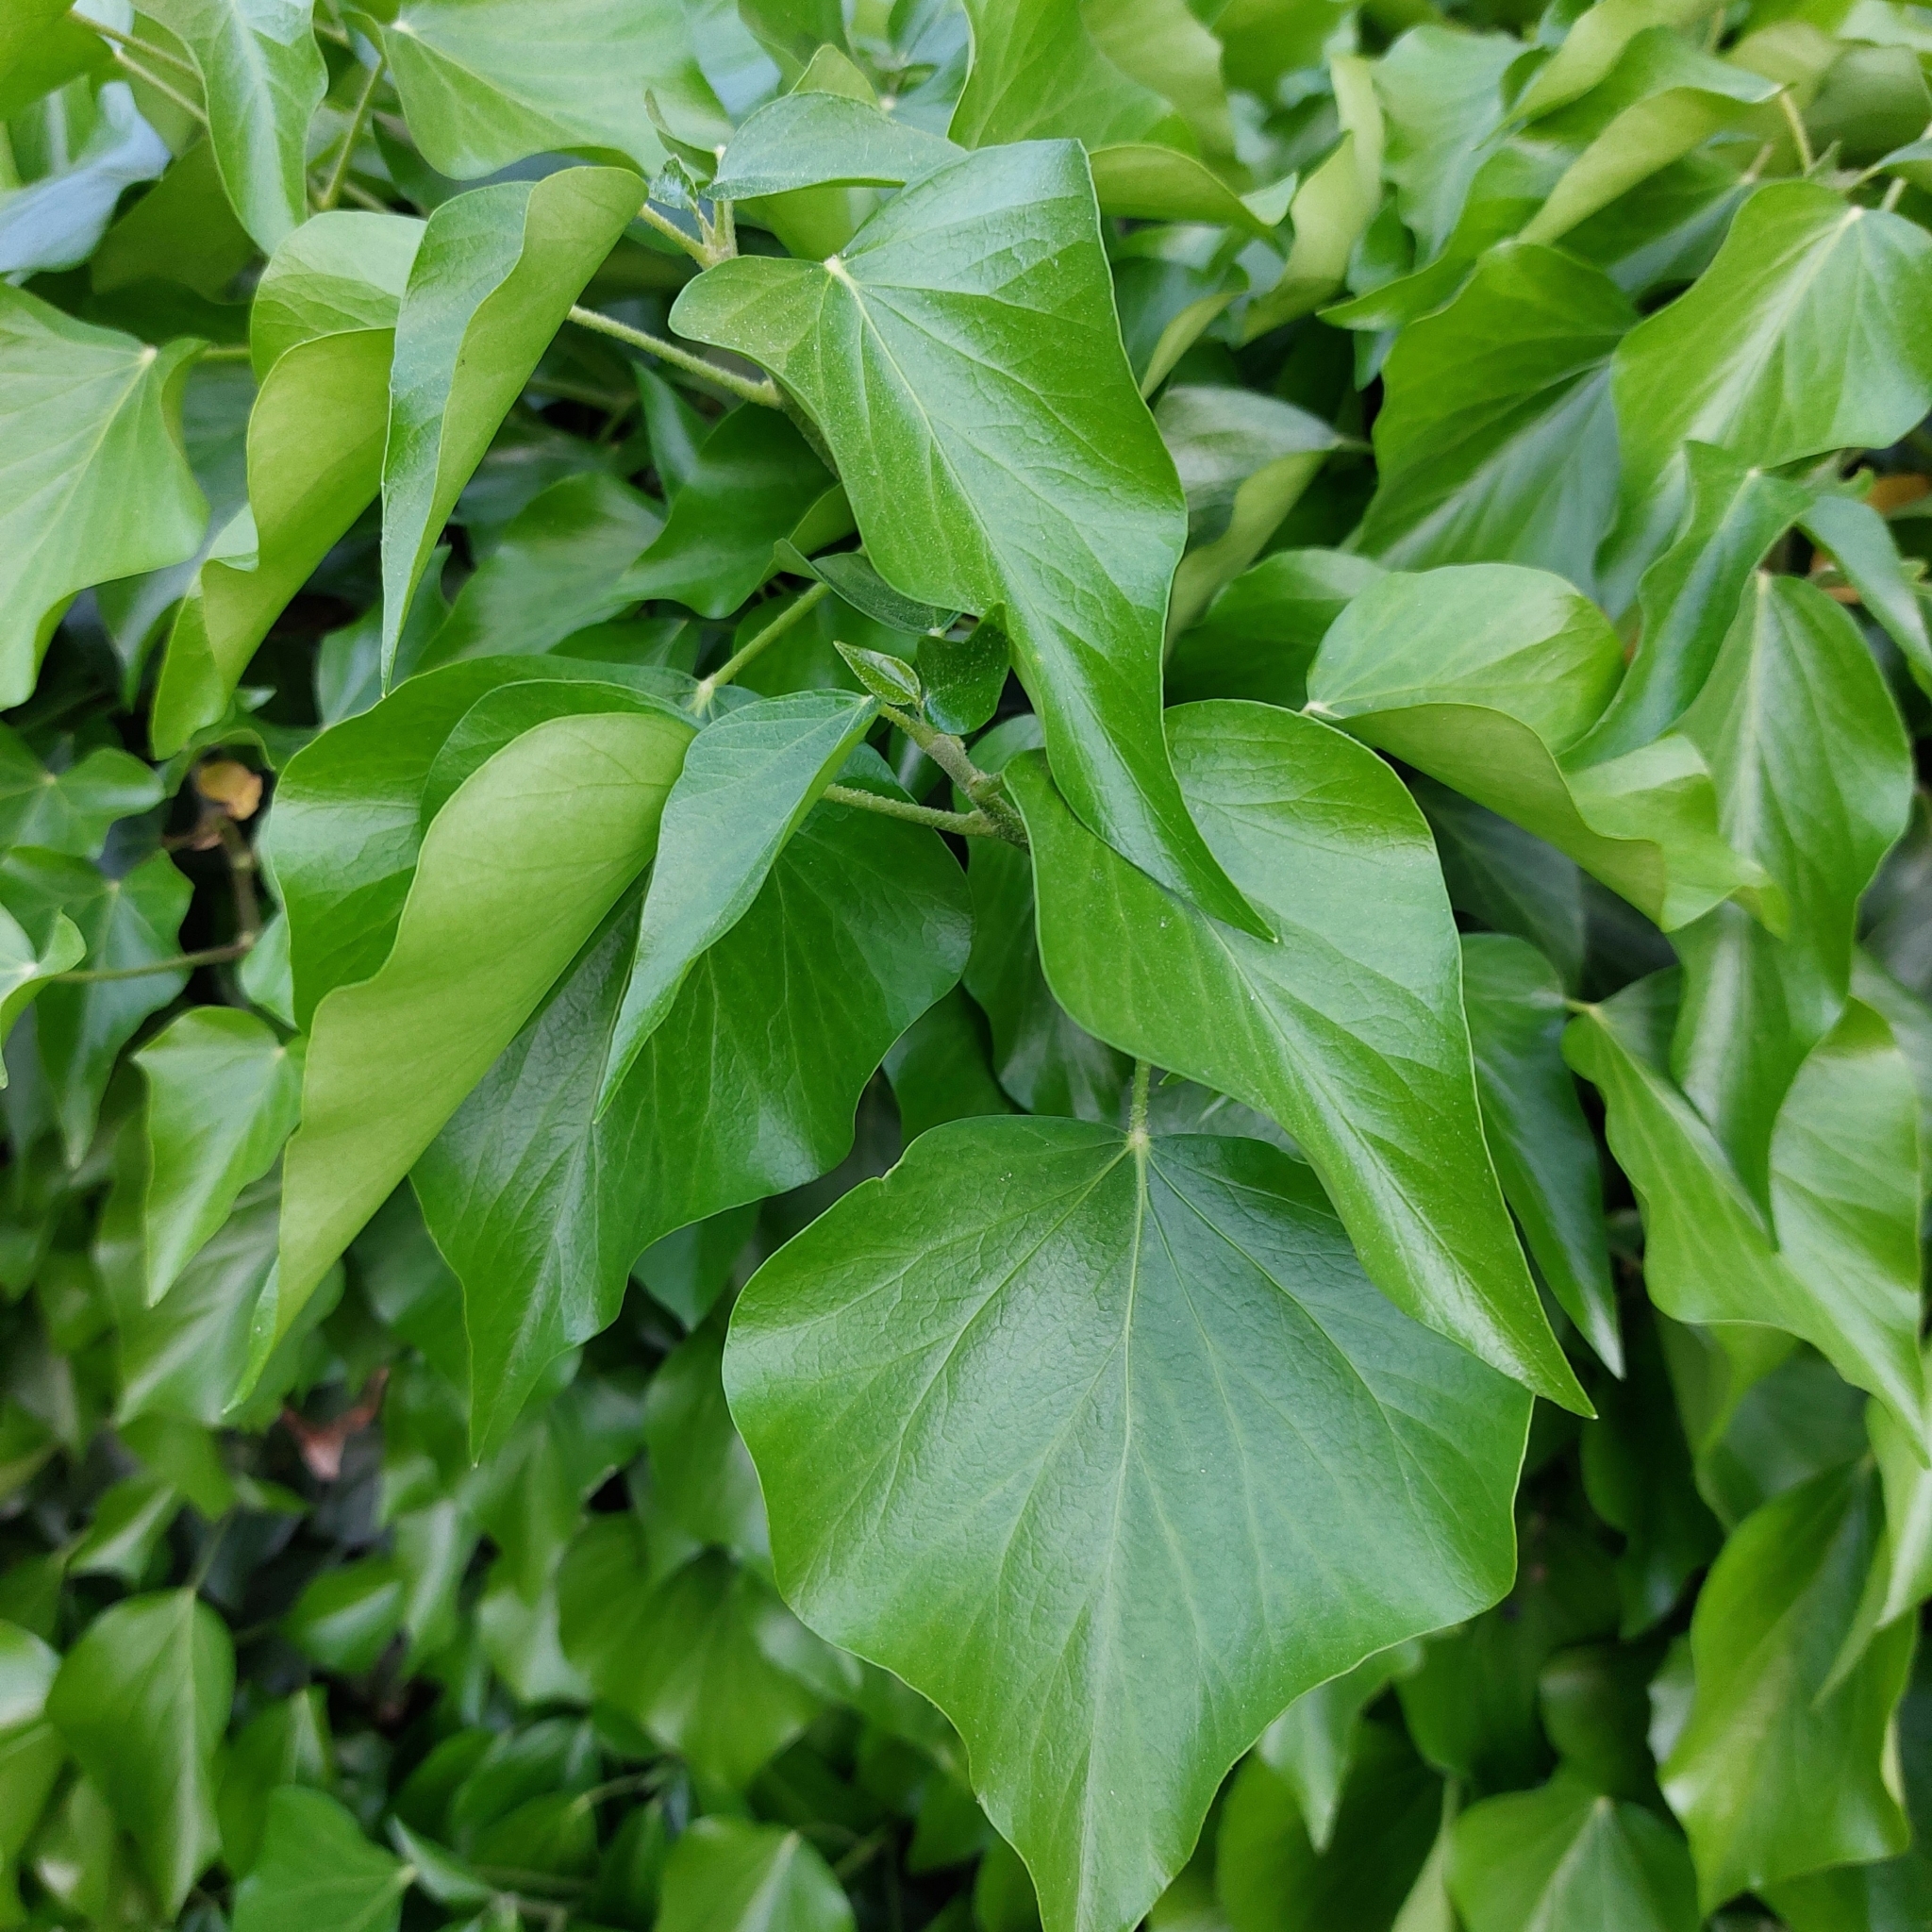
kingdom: Plantae
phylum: Tracheophyta
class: Magnoliopsida
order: Apiales
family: Araliaceae
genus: Hedera
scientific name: Hedera helix
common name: Ivy
